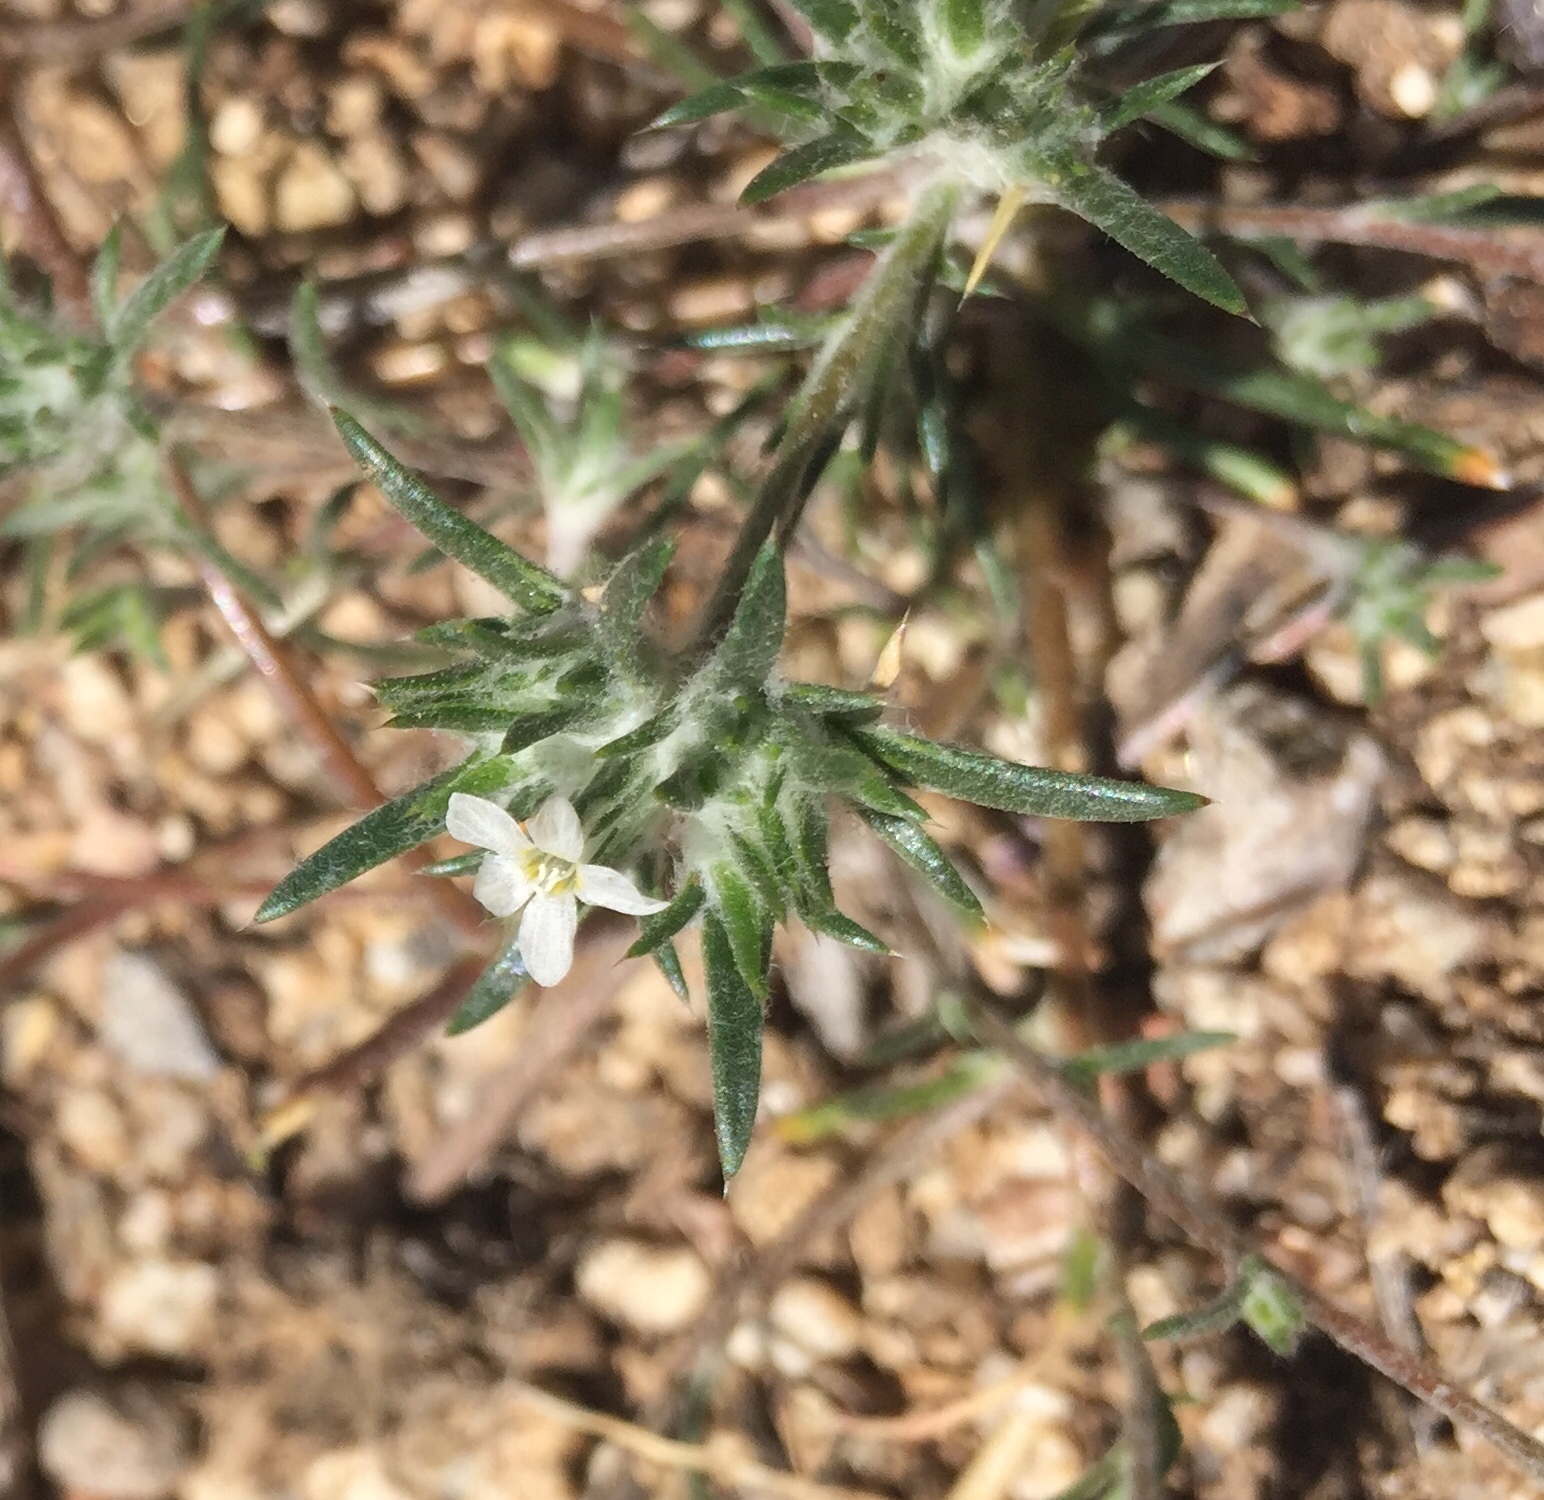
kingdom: Plantae
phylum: Tracheophyta
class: Magnoliopsida
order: Ericales
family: Polemoniaceae
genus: Eriastrum
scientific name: Eriastrum diffusum
